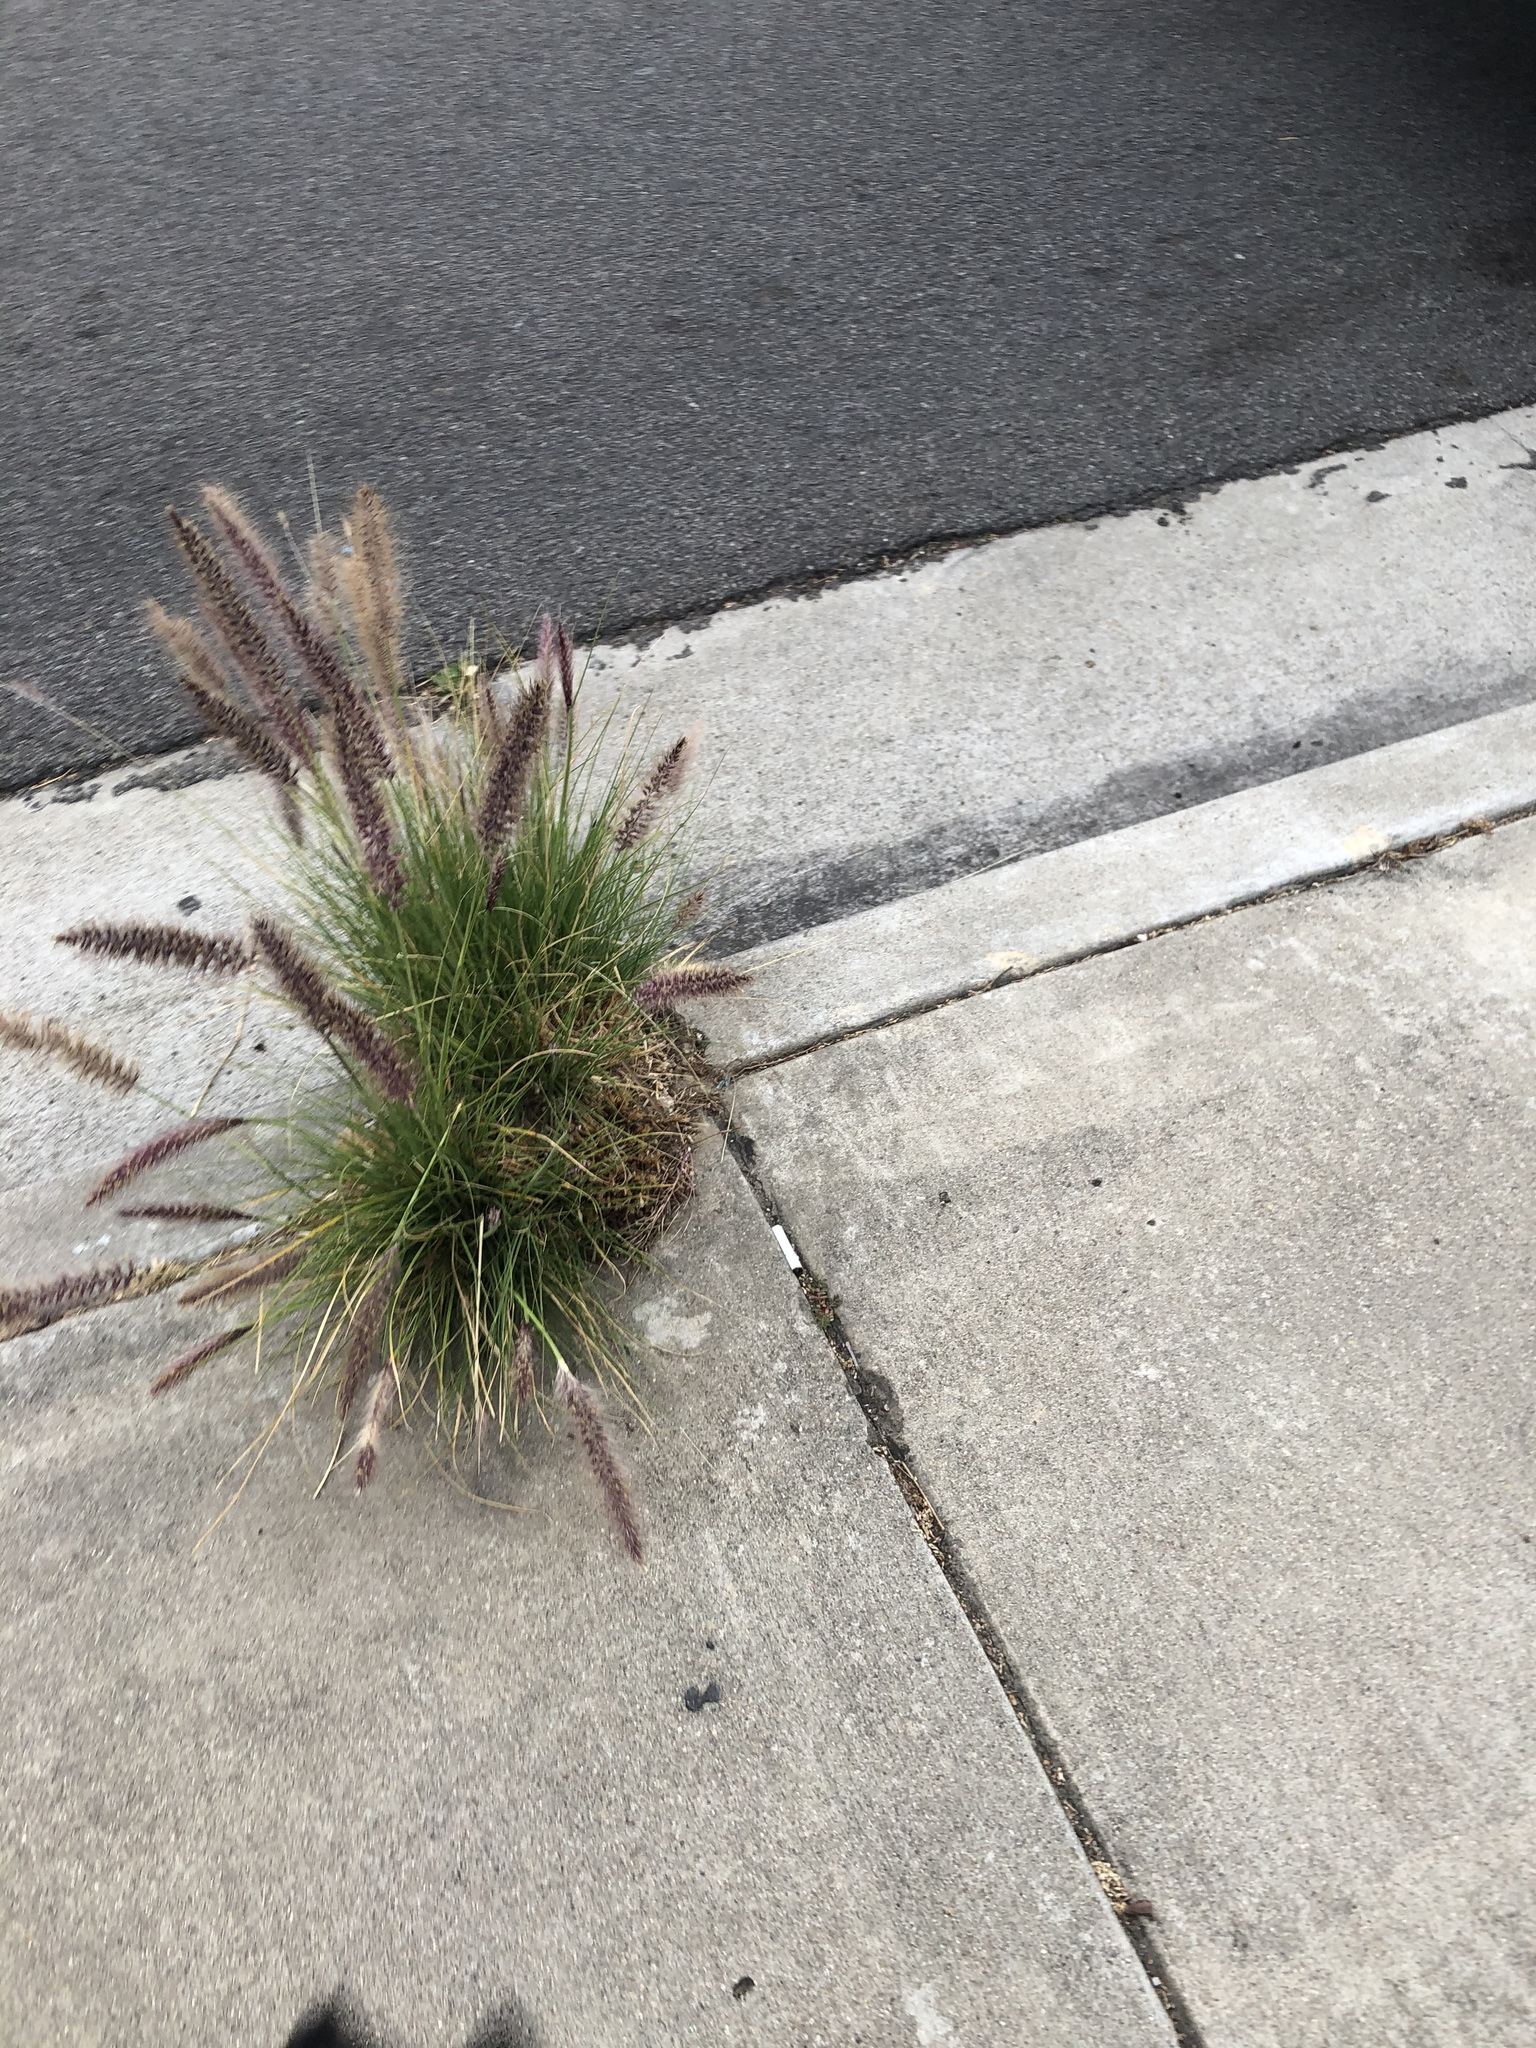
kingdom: Plantae
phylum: Tracheophyta
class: Liliopsida
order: Poales
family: Poaceae
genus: Cenchrus
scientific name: Cenchrus setaceus
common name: Crimson fountaingrass
